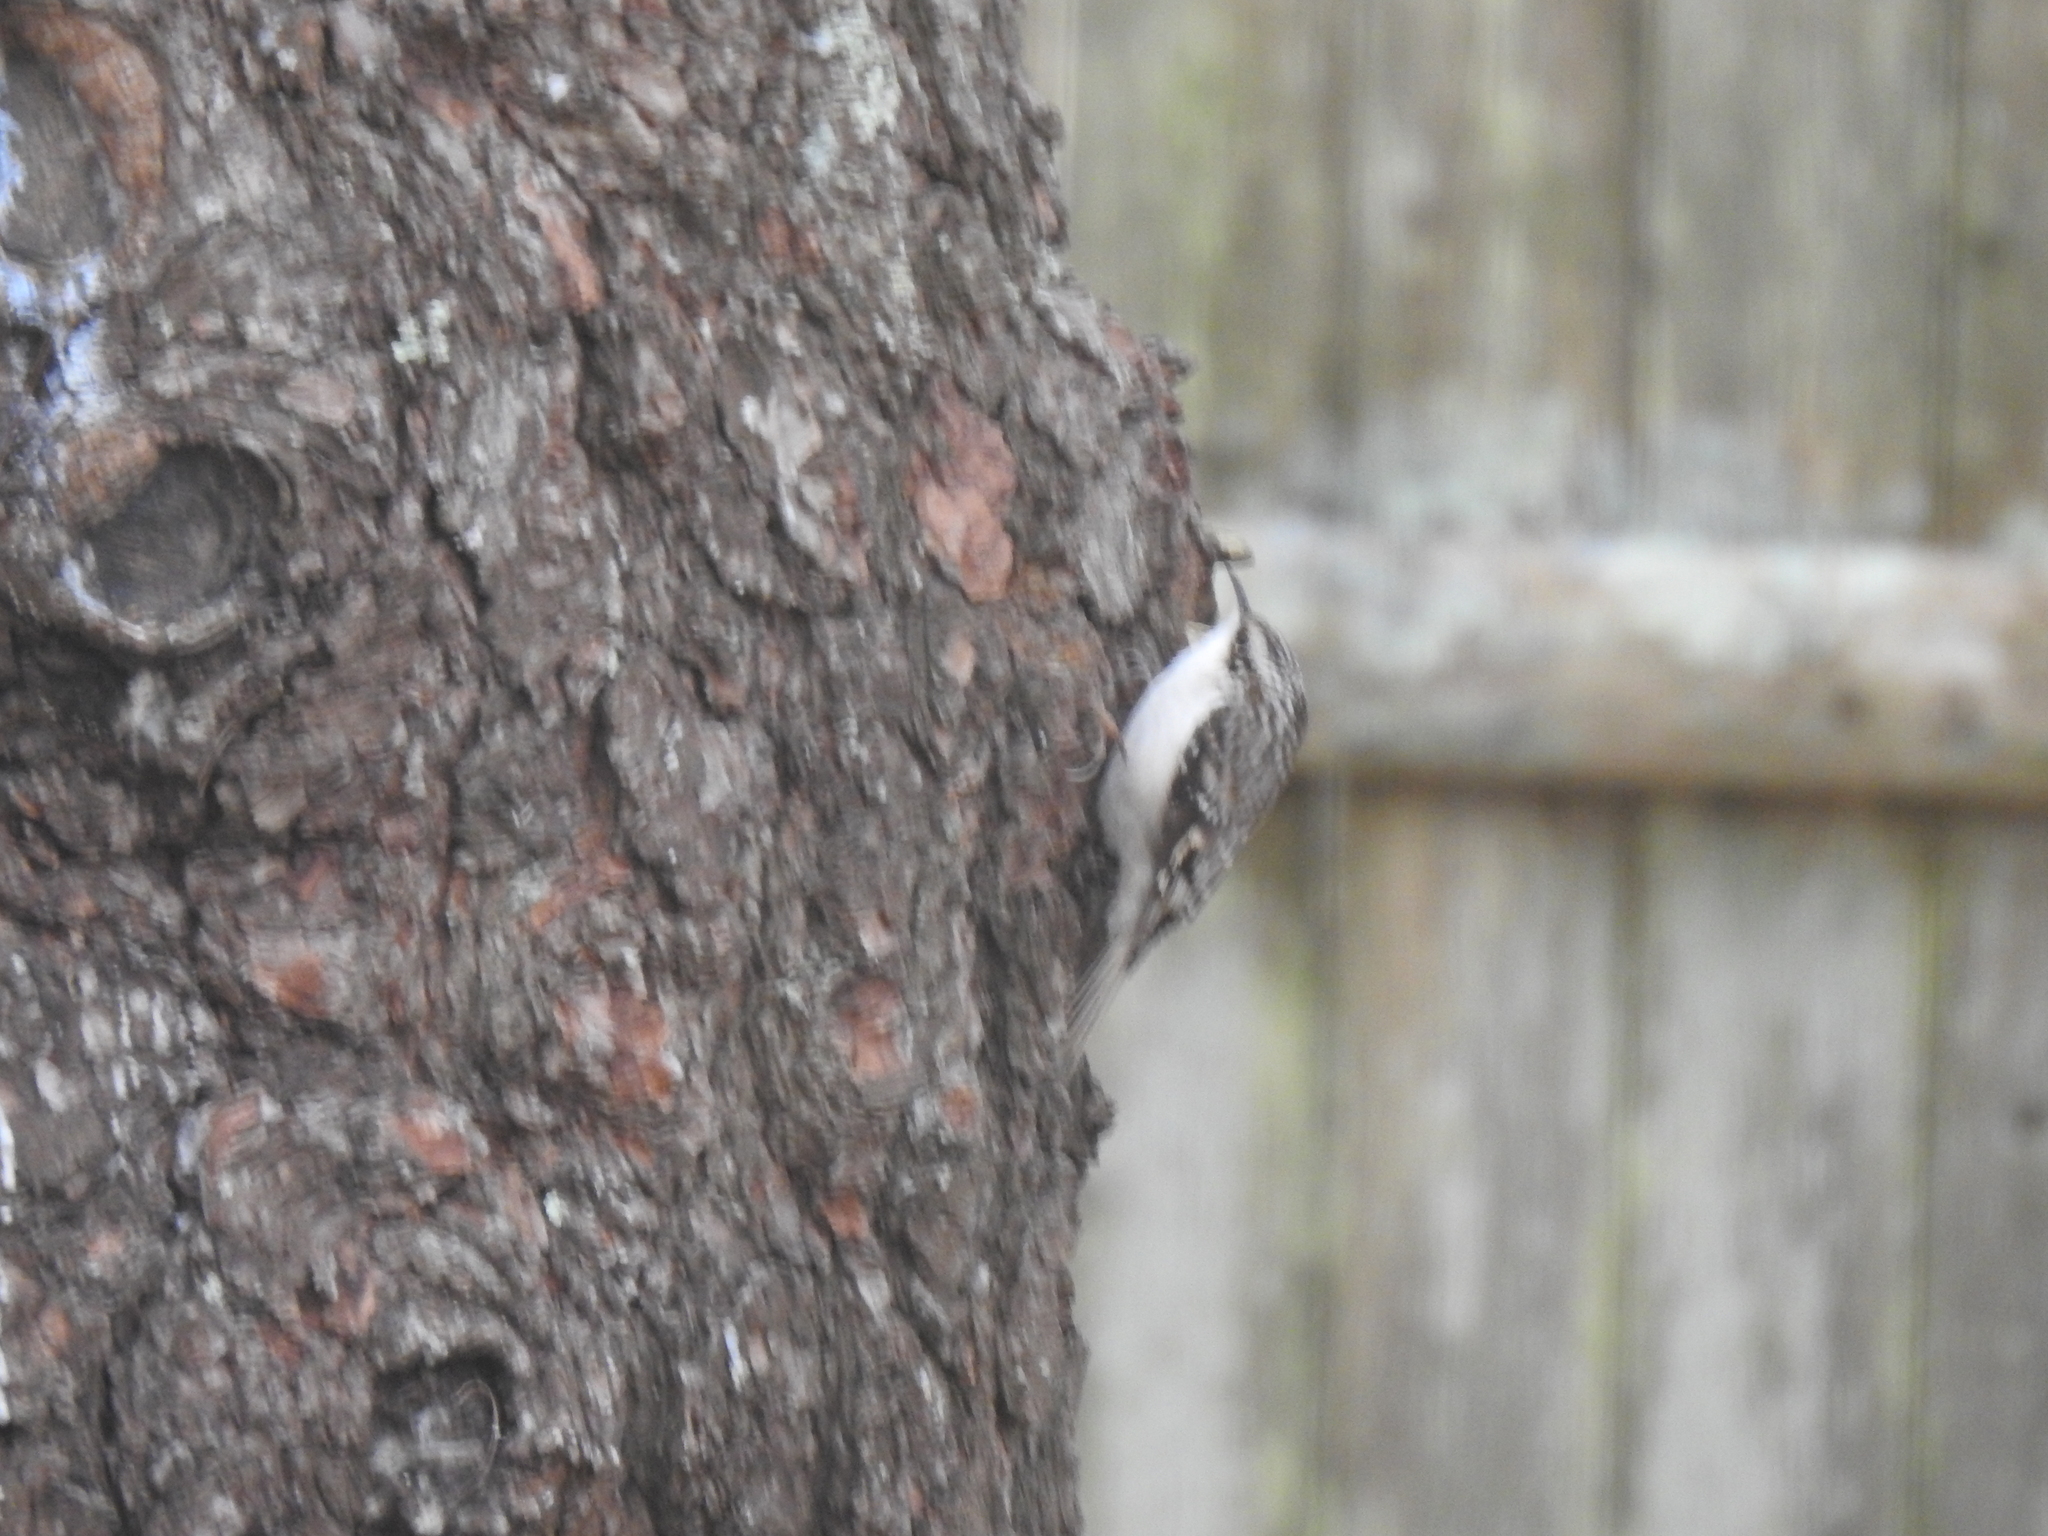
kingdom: Animalia
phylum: Chordata
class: Aves
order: Passeriformes
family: Certhiidae
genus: Certhia
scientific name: Certhia americana
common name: Brown creeper
